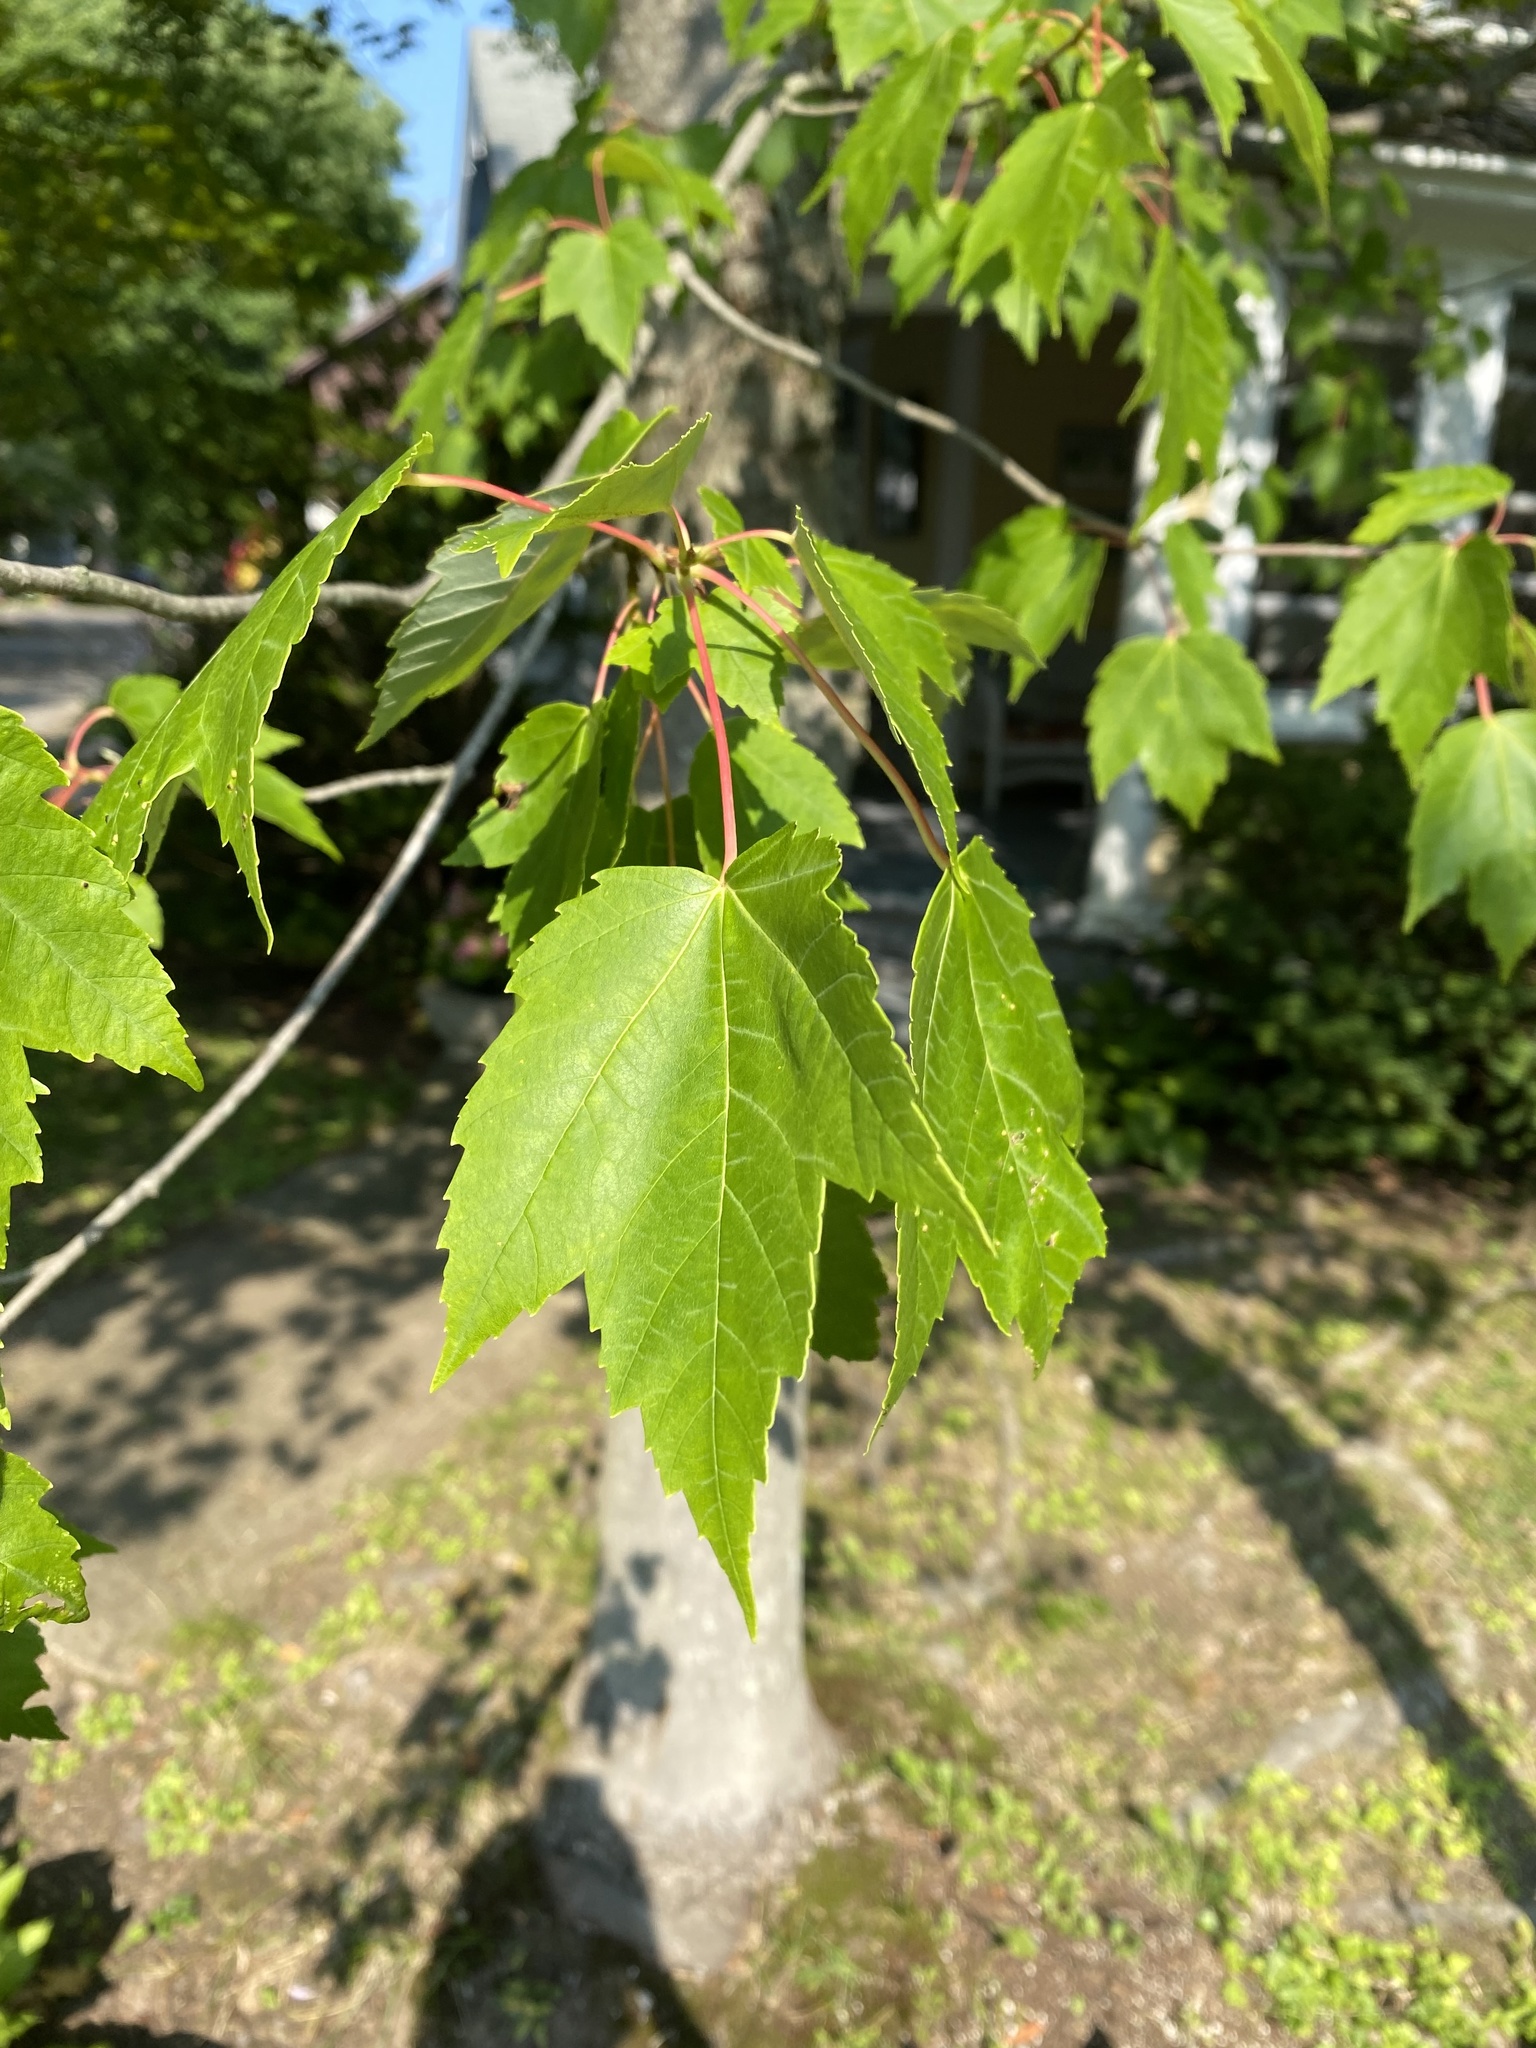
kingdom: Plantae
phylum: Tracheophyta
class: Magnoliopsida
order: Sapindales
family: Sapindaceae
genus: Acer
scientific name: Acer rubrum
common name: Red maple
